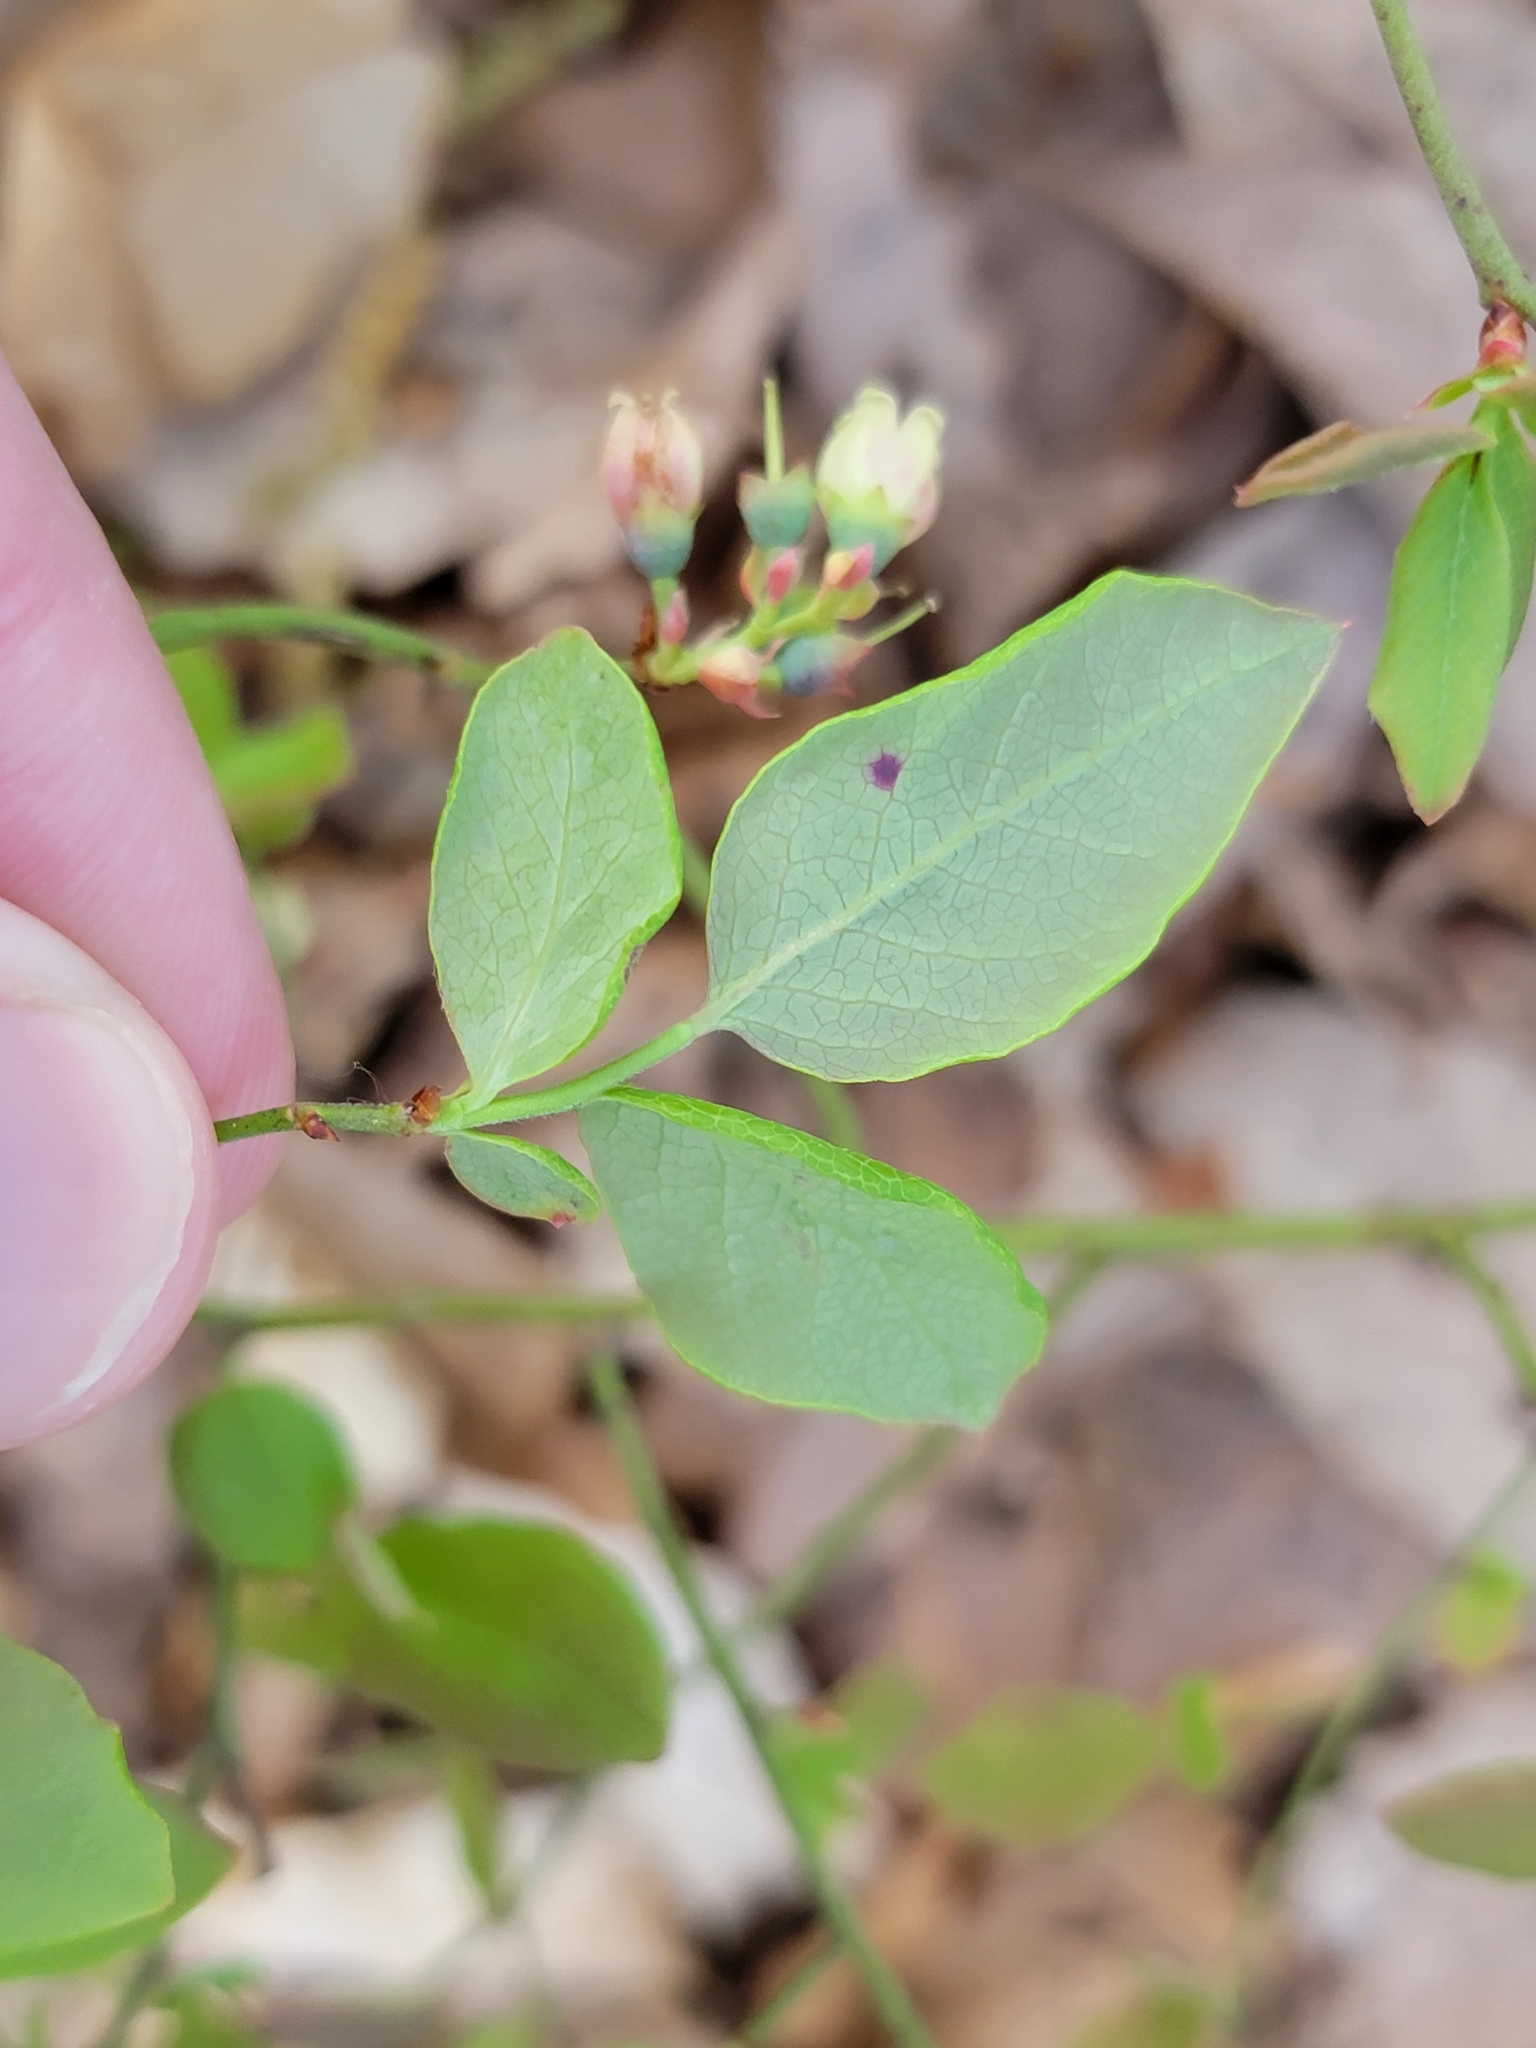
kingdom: Plantae
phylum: Tracheophyta
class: Magnoliopsida
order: Ericales
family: Ericaceae
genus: Vaccinium
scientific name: Vaccinium pallidum
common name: Blue ridge blueberry
